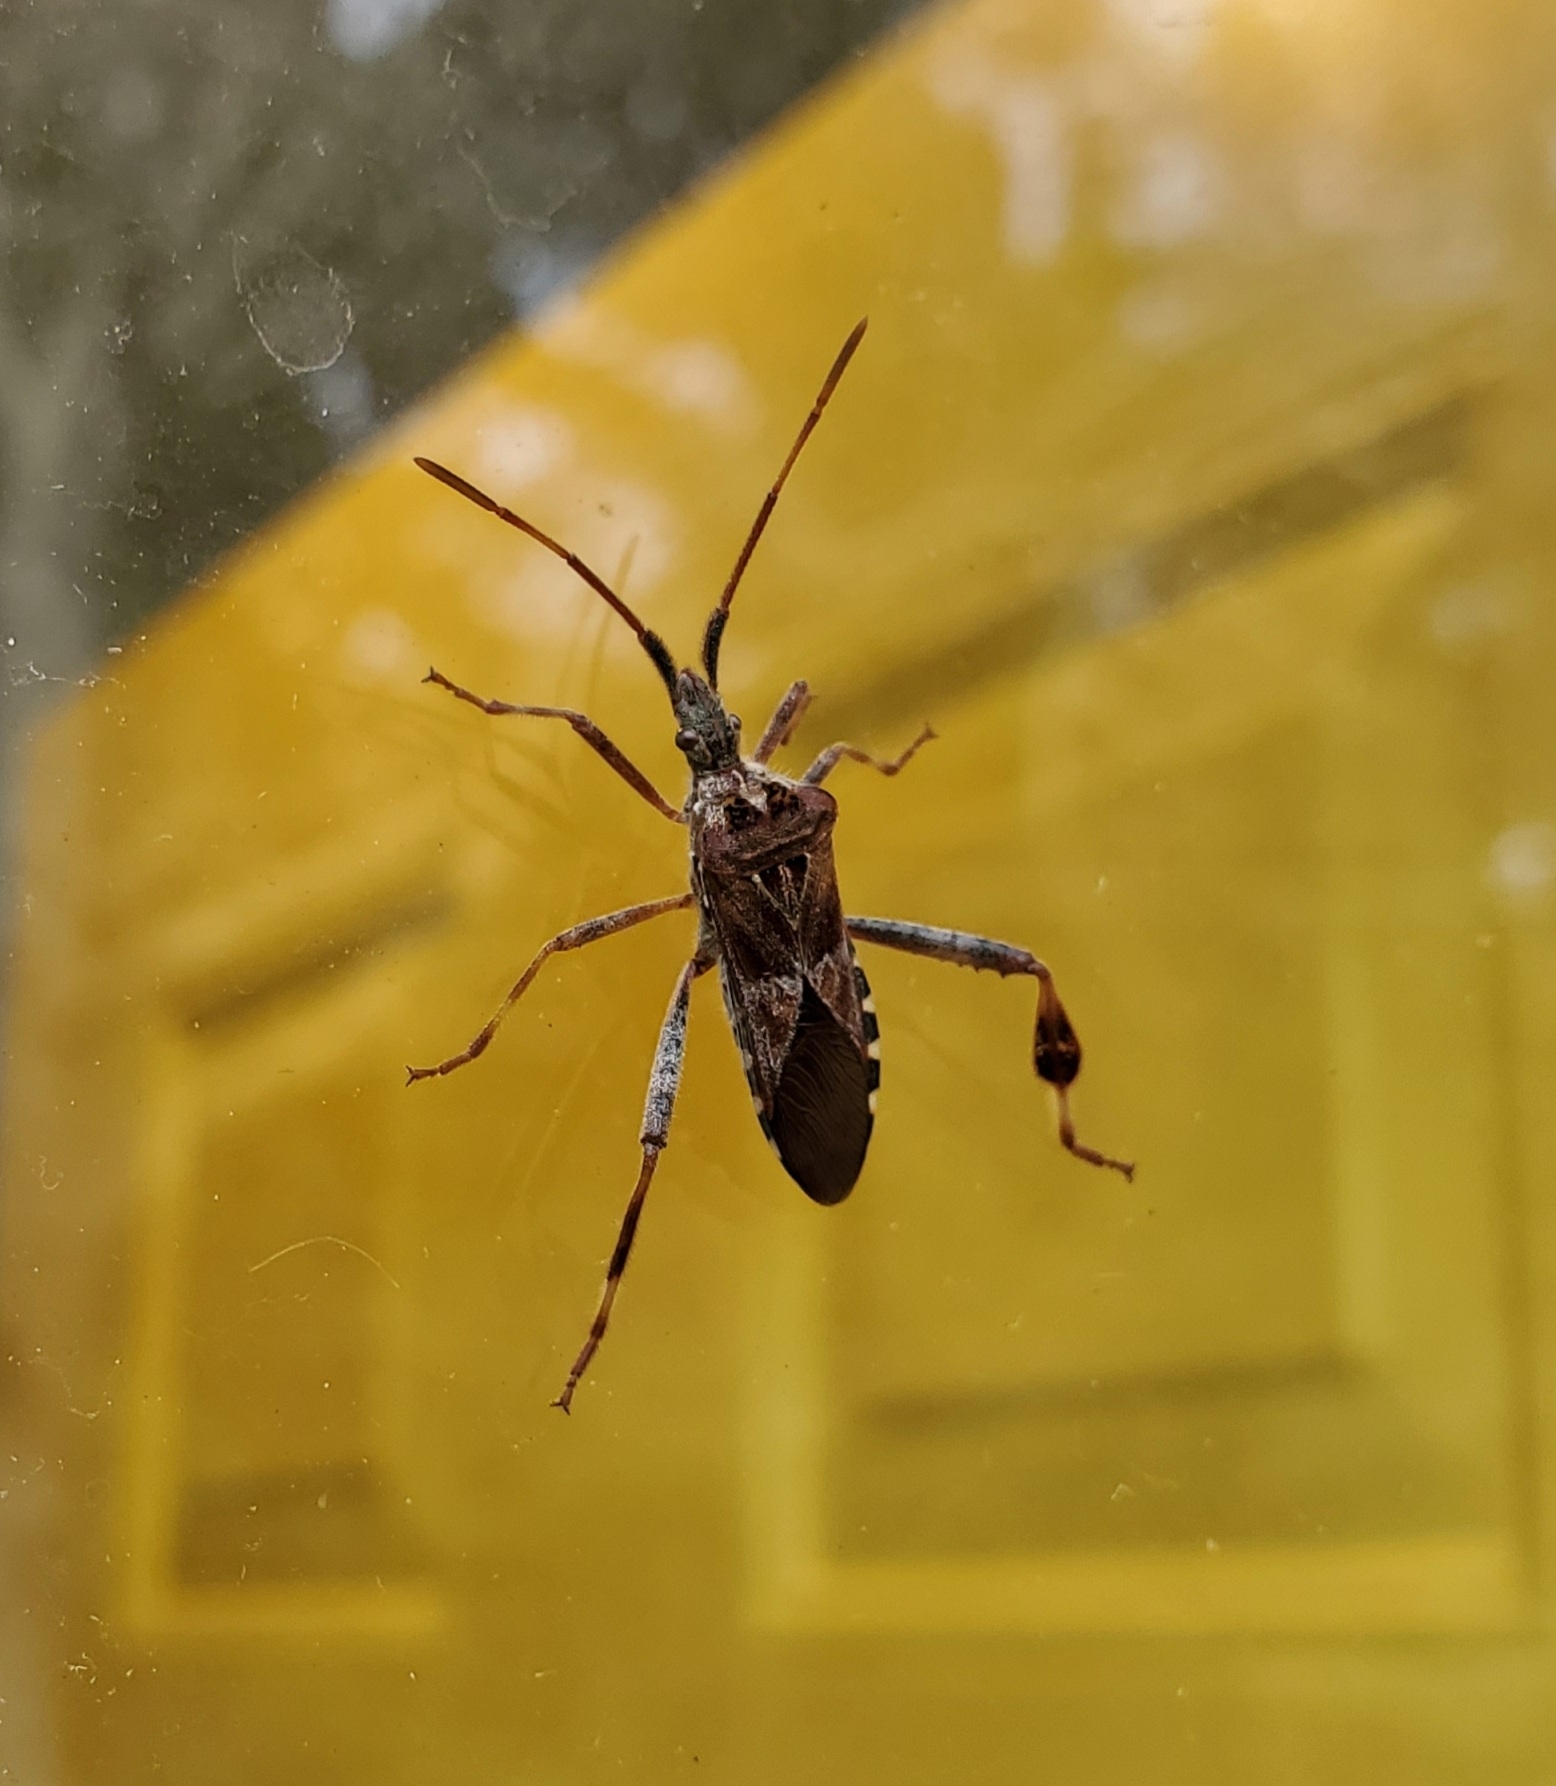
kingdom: Animalia
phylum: Arthropoda
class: Insecta
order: Hemiptera
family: Coreidae
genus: Leptoglossus
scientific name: Leptoglossus occidentalis
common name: Western conifer-seed bug
